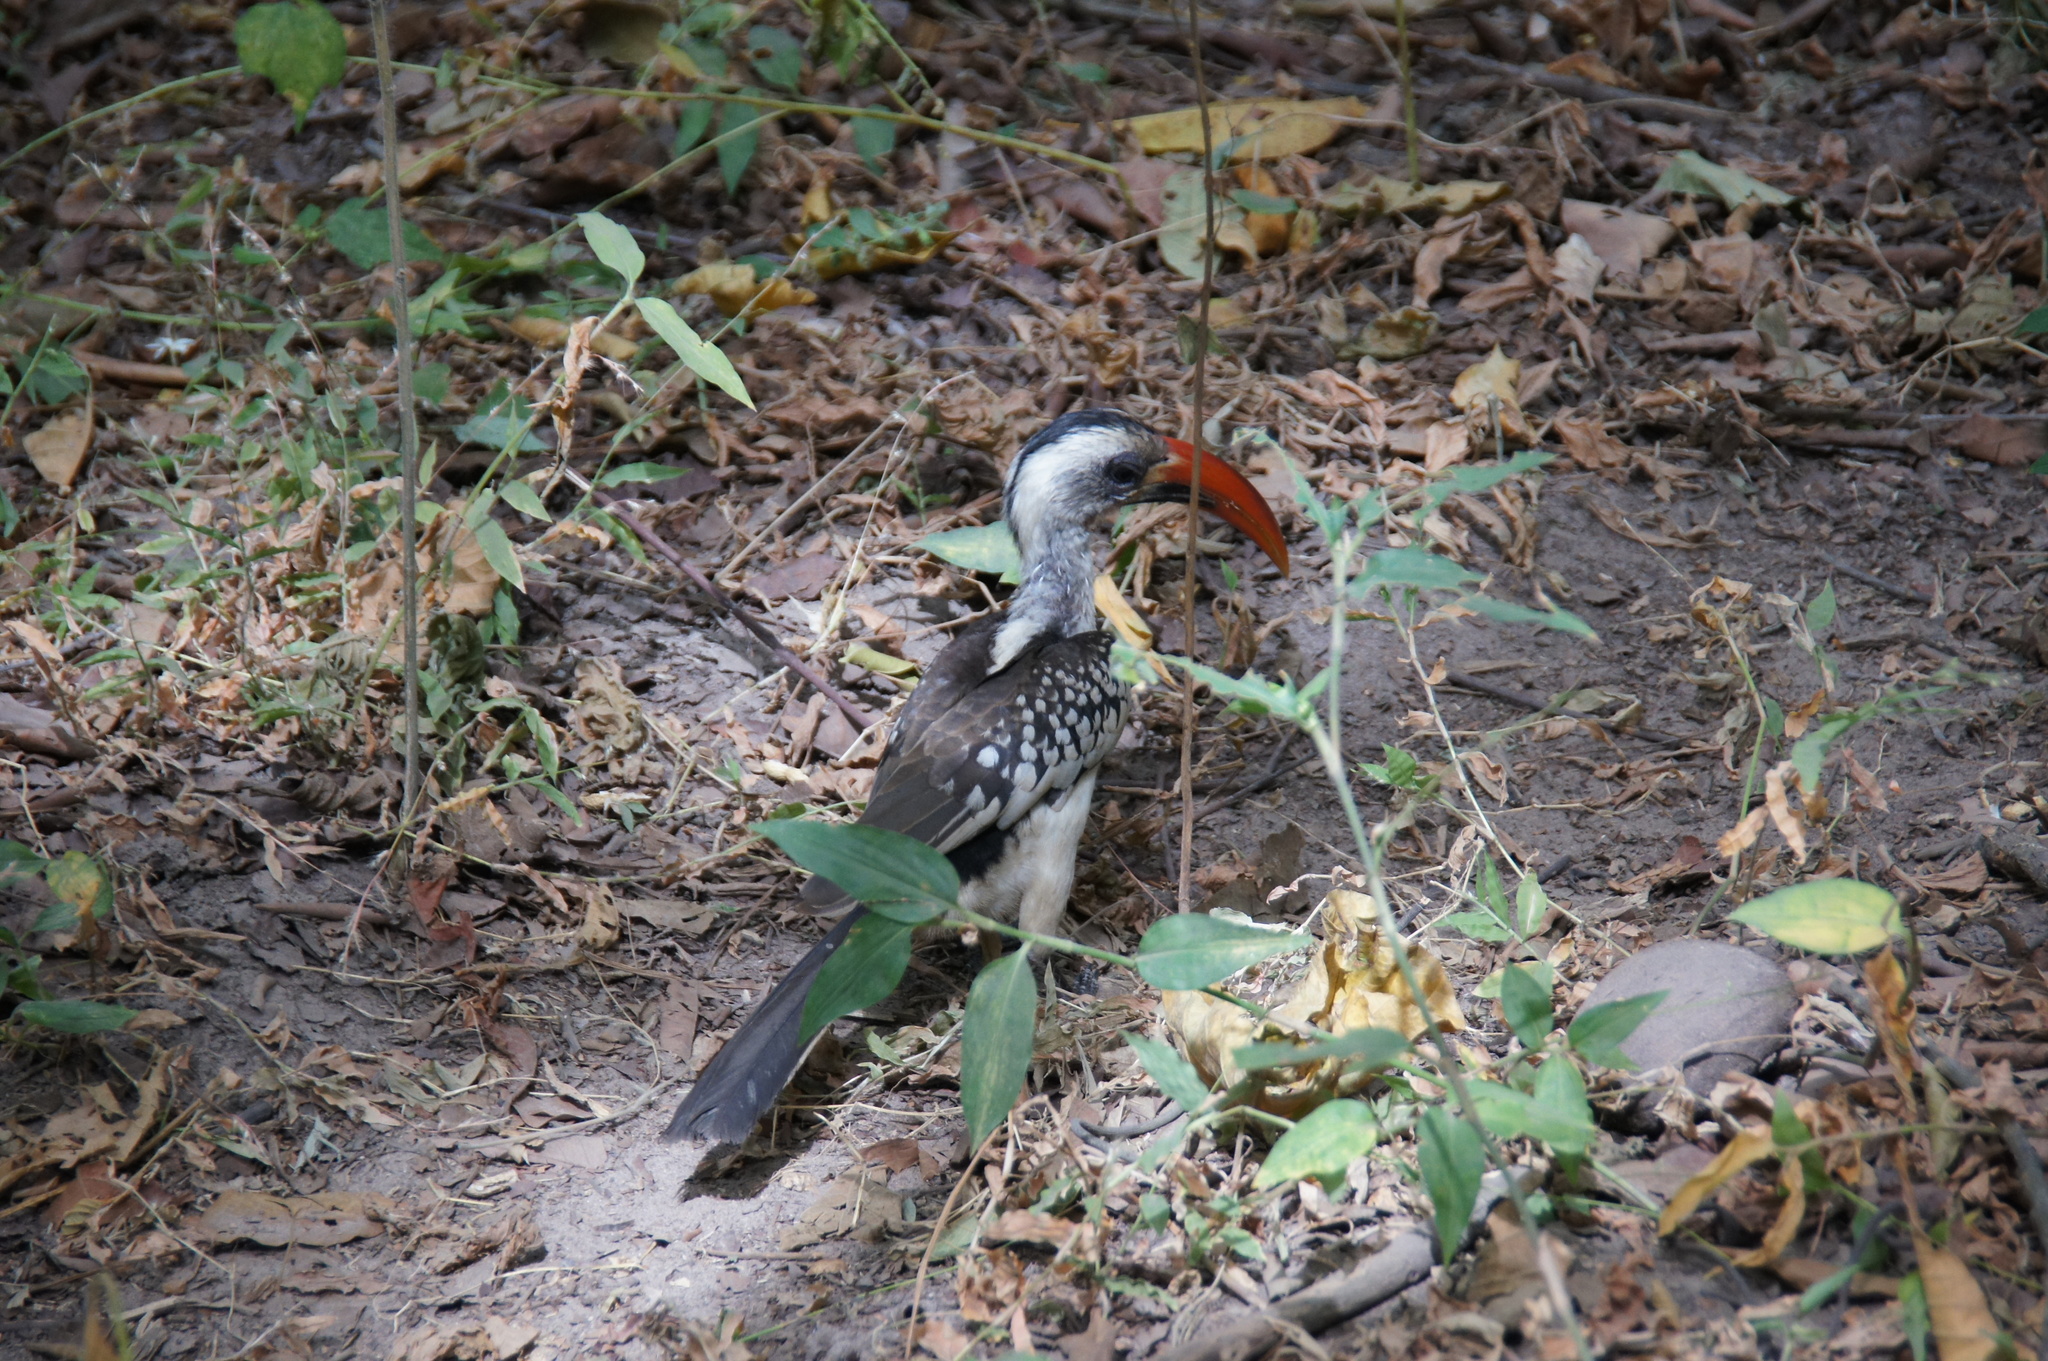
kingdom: Animalia
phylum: Chordata
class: Aves
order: Bucerotiformes
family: Bucerotidae
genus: Tockus
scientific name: Tockus kempi
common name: Western red-billed hornbill
